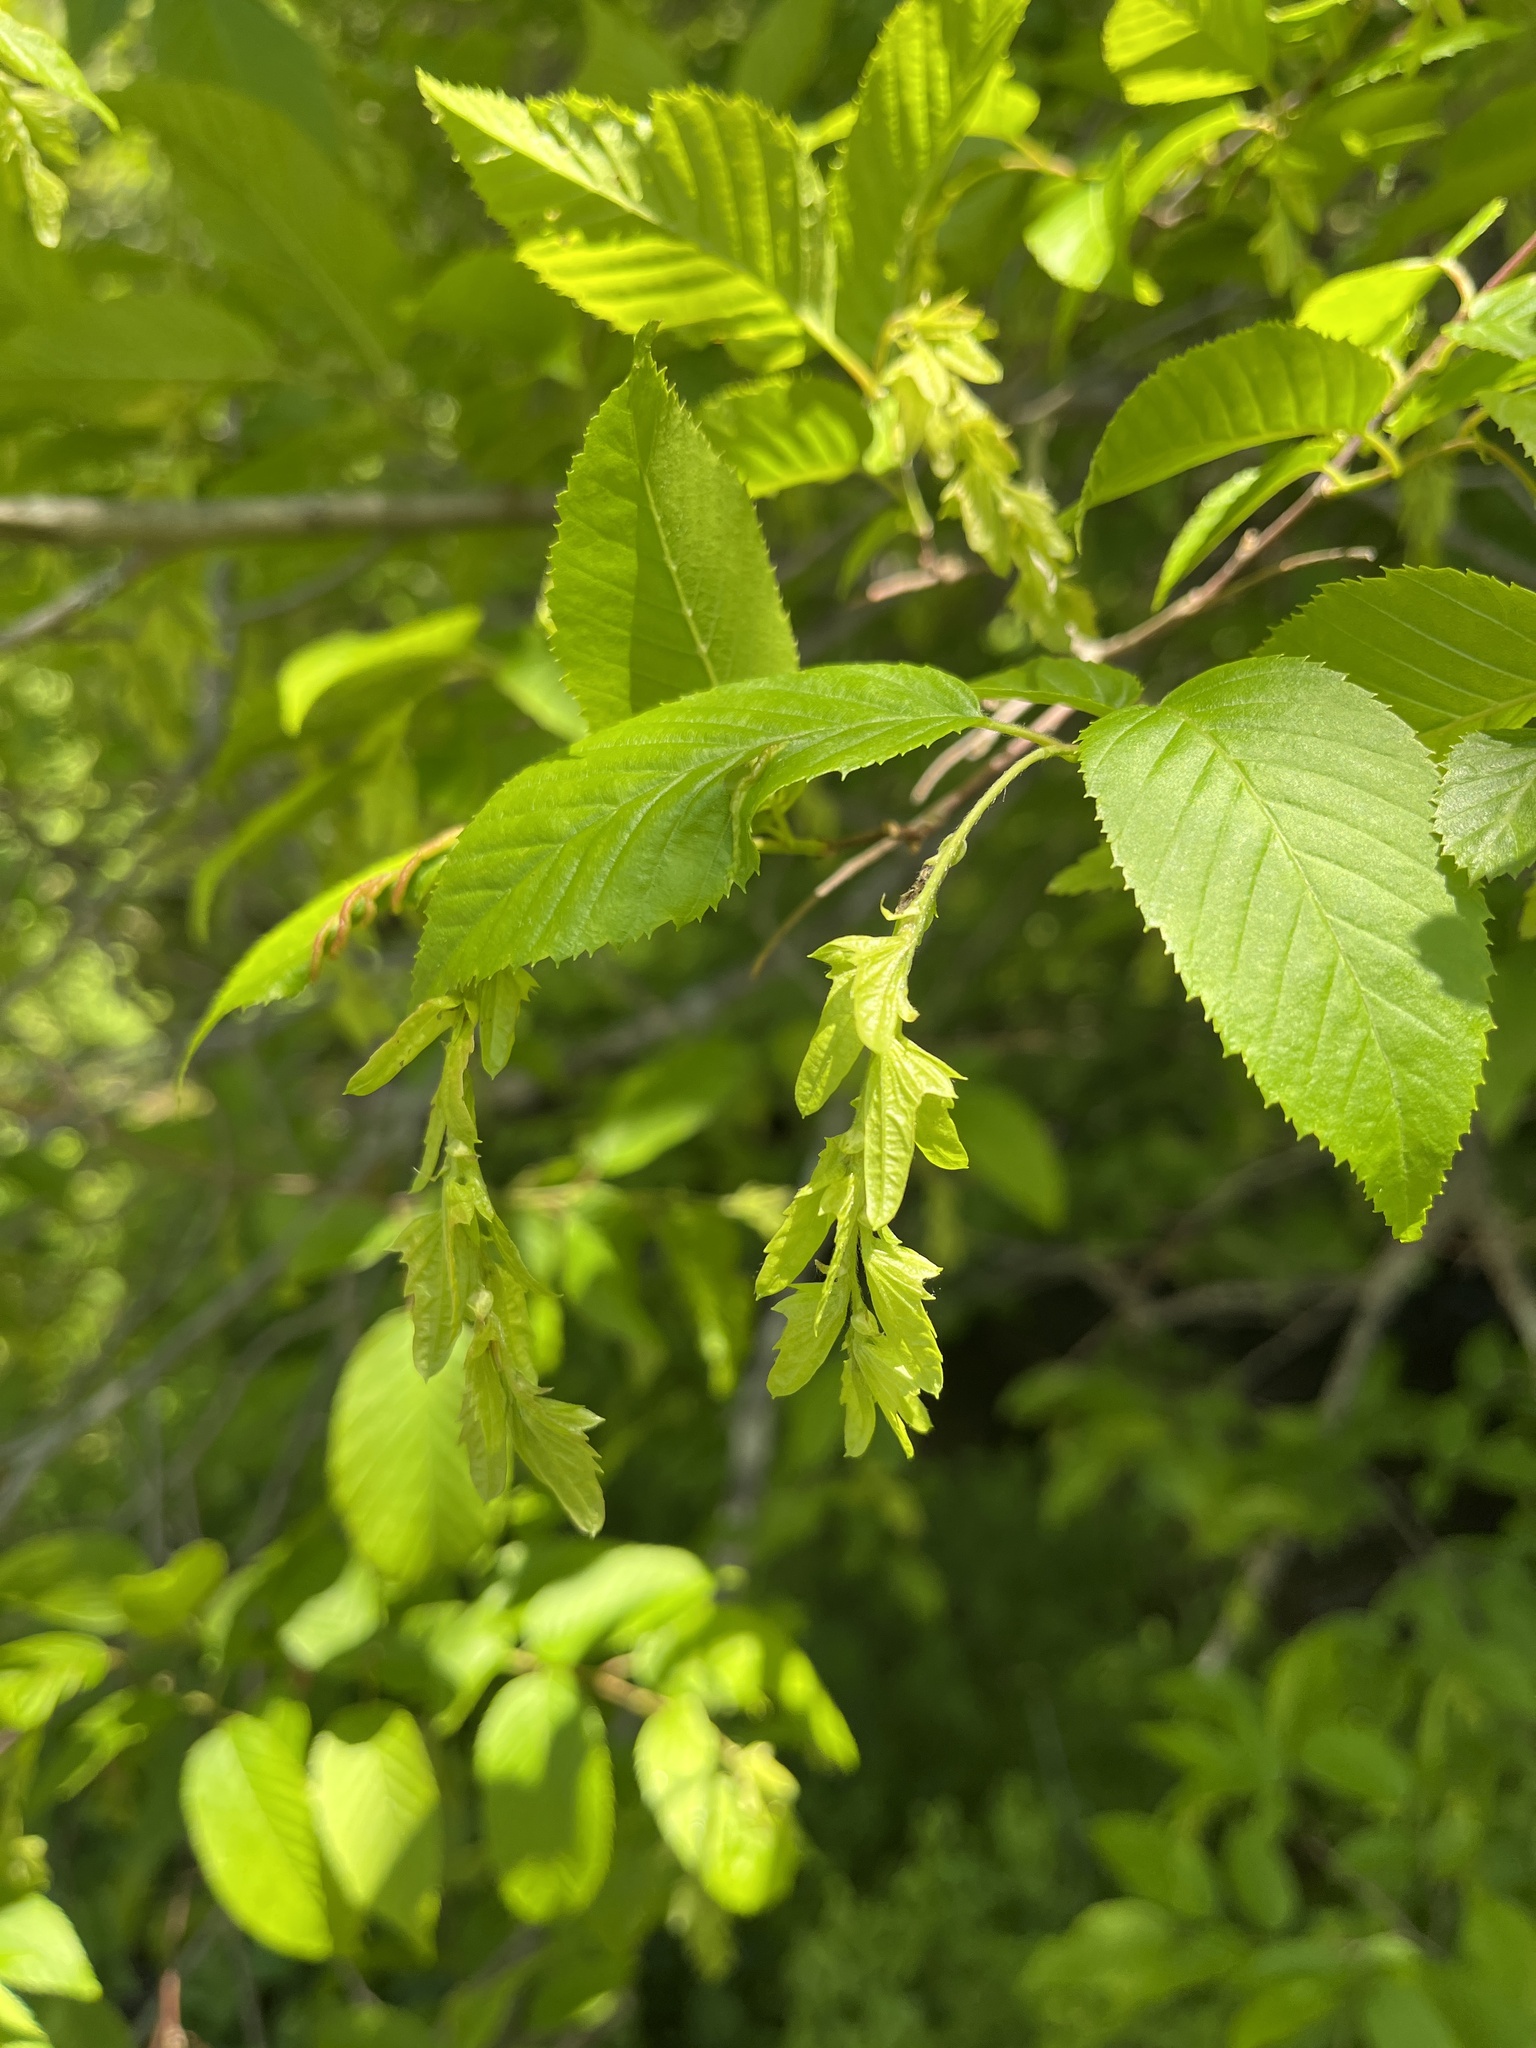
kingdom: Plantae
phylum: Tracheophyta
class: Magnoliopsida
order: Fagales
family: Betulaceae
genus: Carpinus
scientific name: Carpinus caroliniana
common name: American hornbeam
